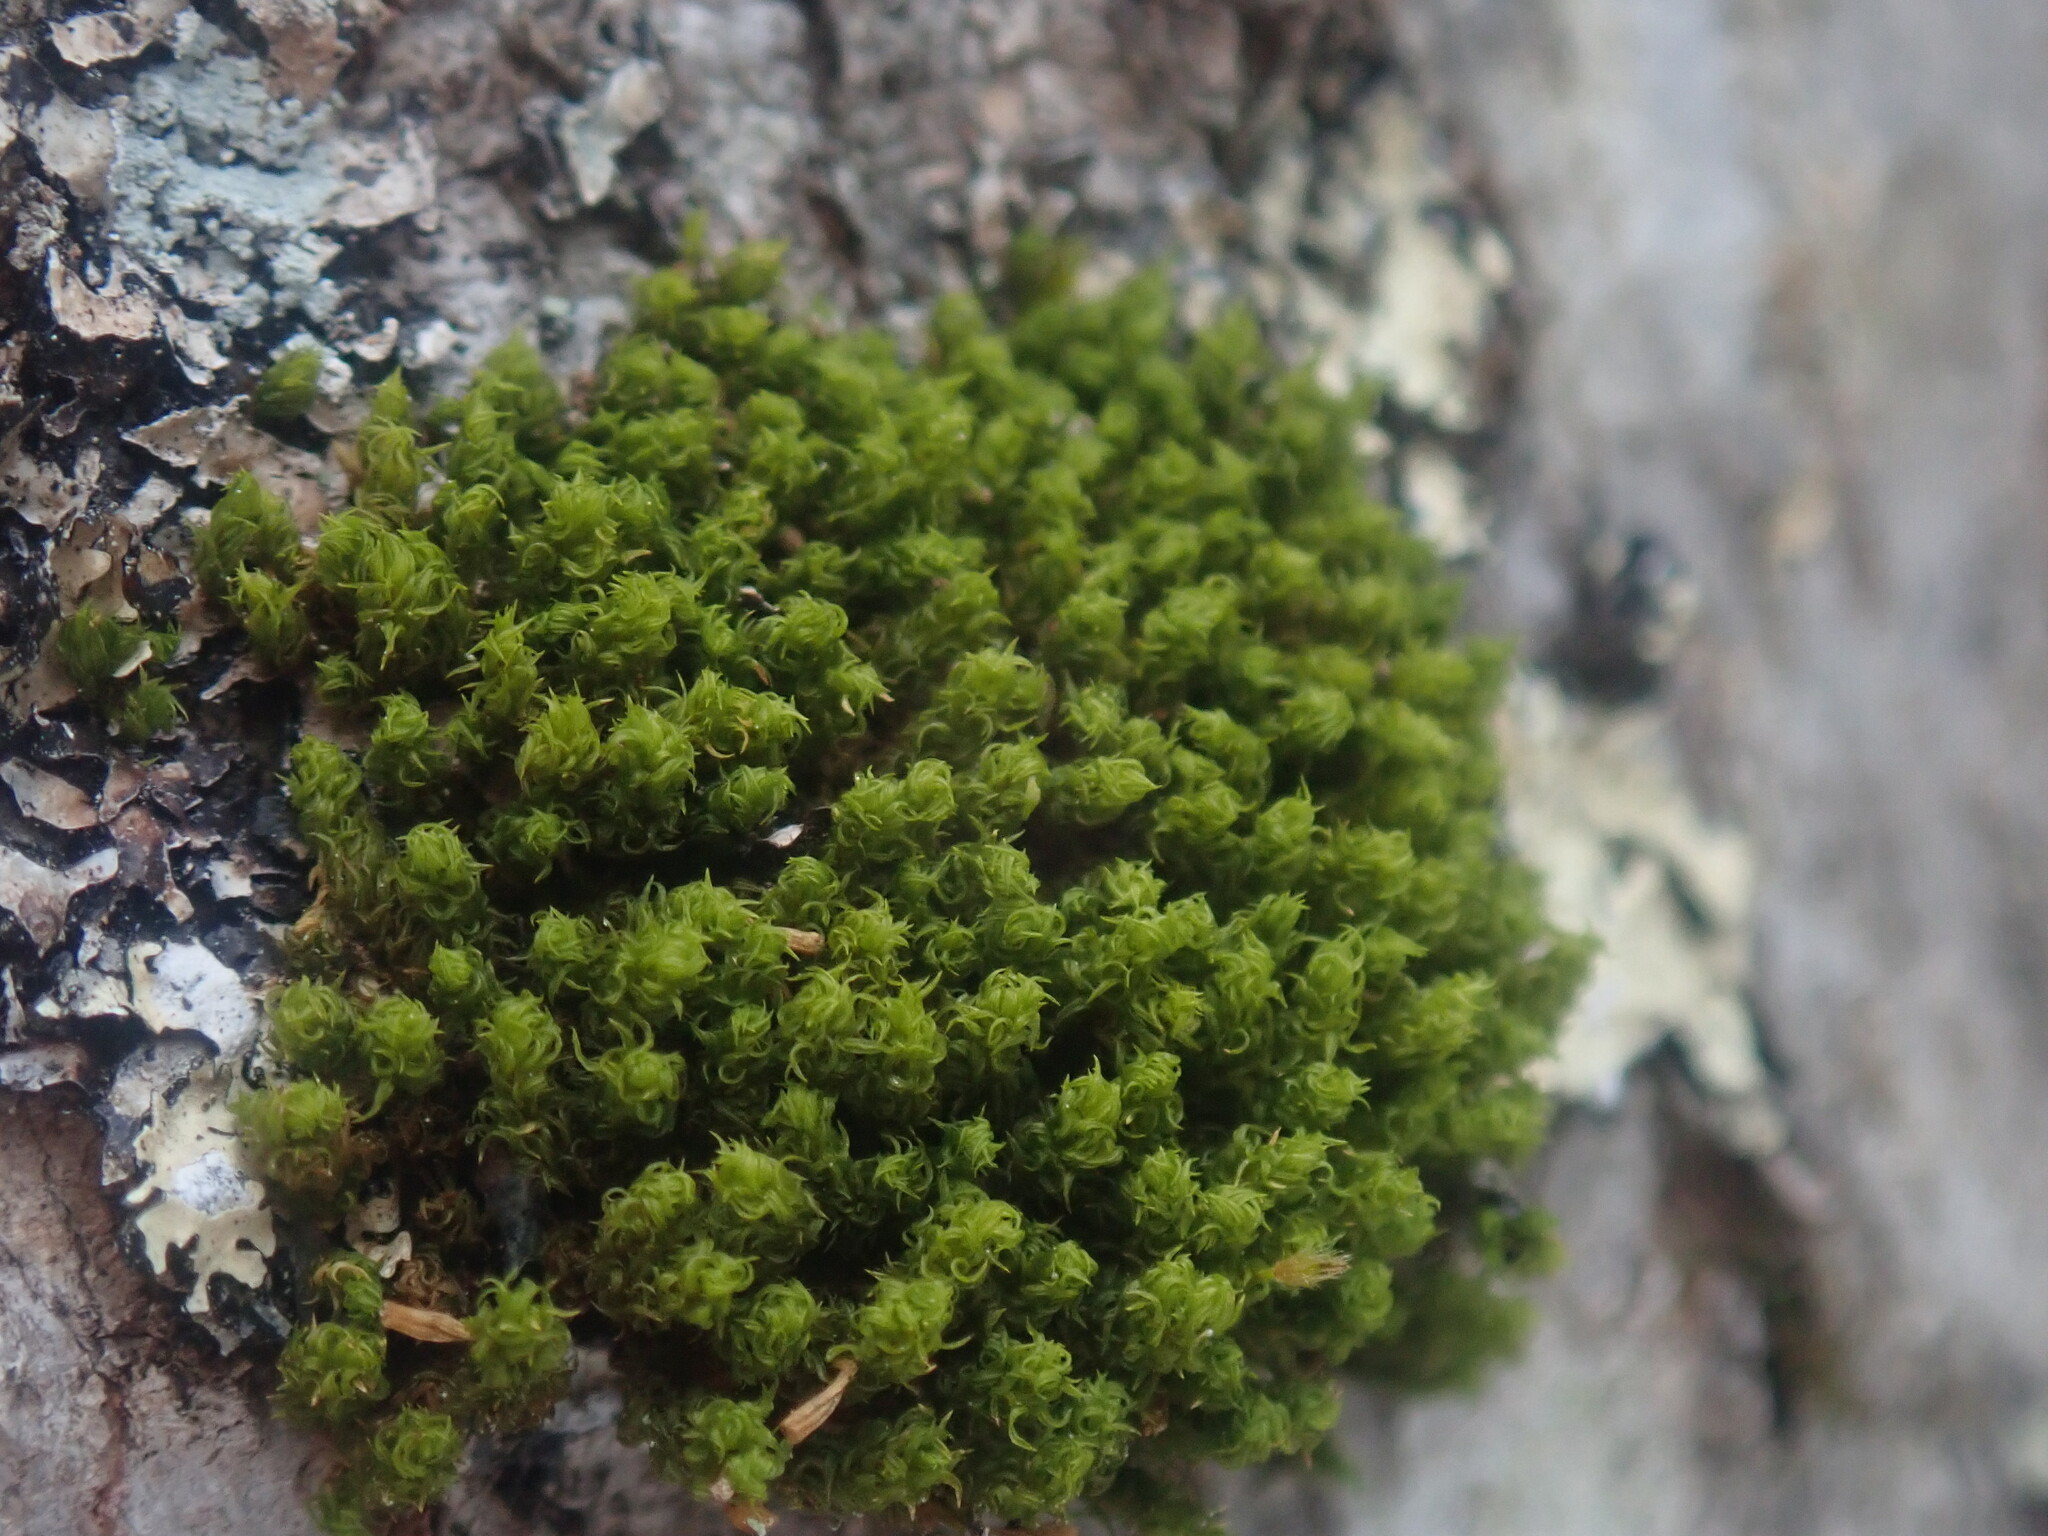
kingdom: Plantae
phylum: Bryophyta
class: Bryopsida
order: Orthotrichales
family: Orthotrichaceae
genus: Ulota
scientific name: Ulota crispa
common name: Crisped pincushion moss
